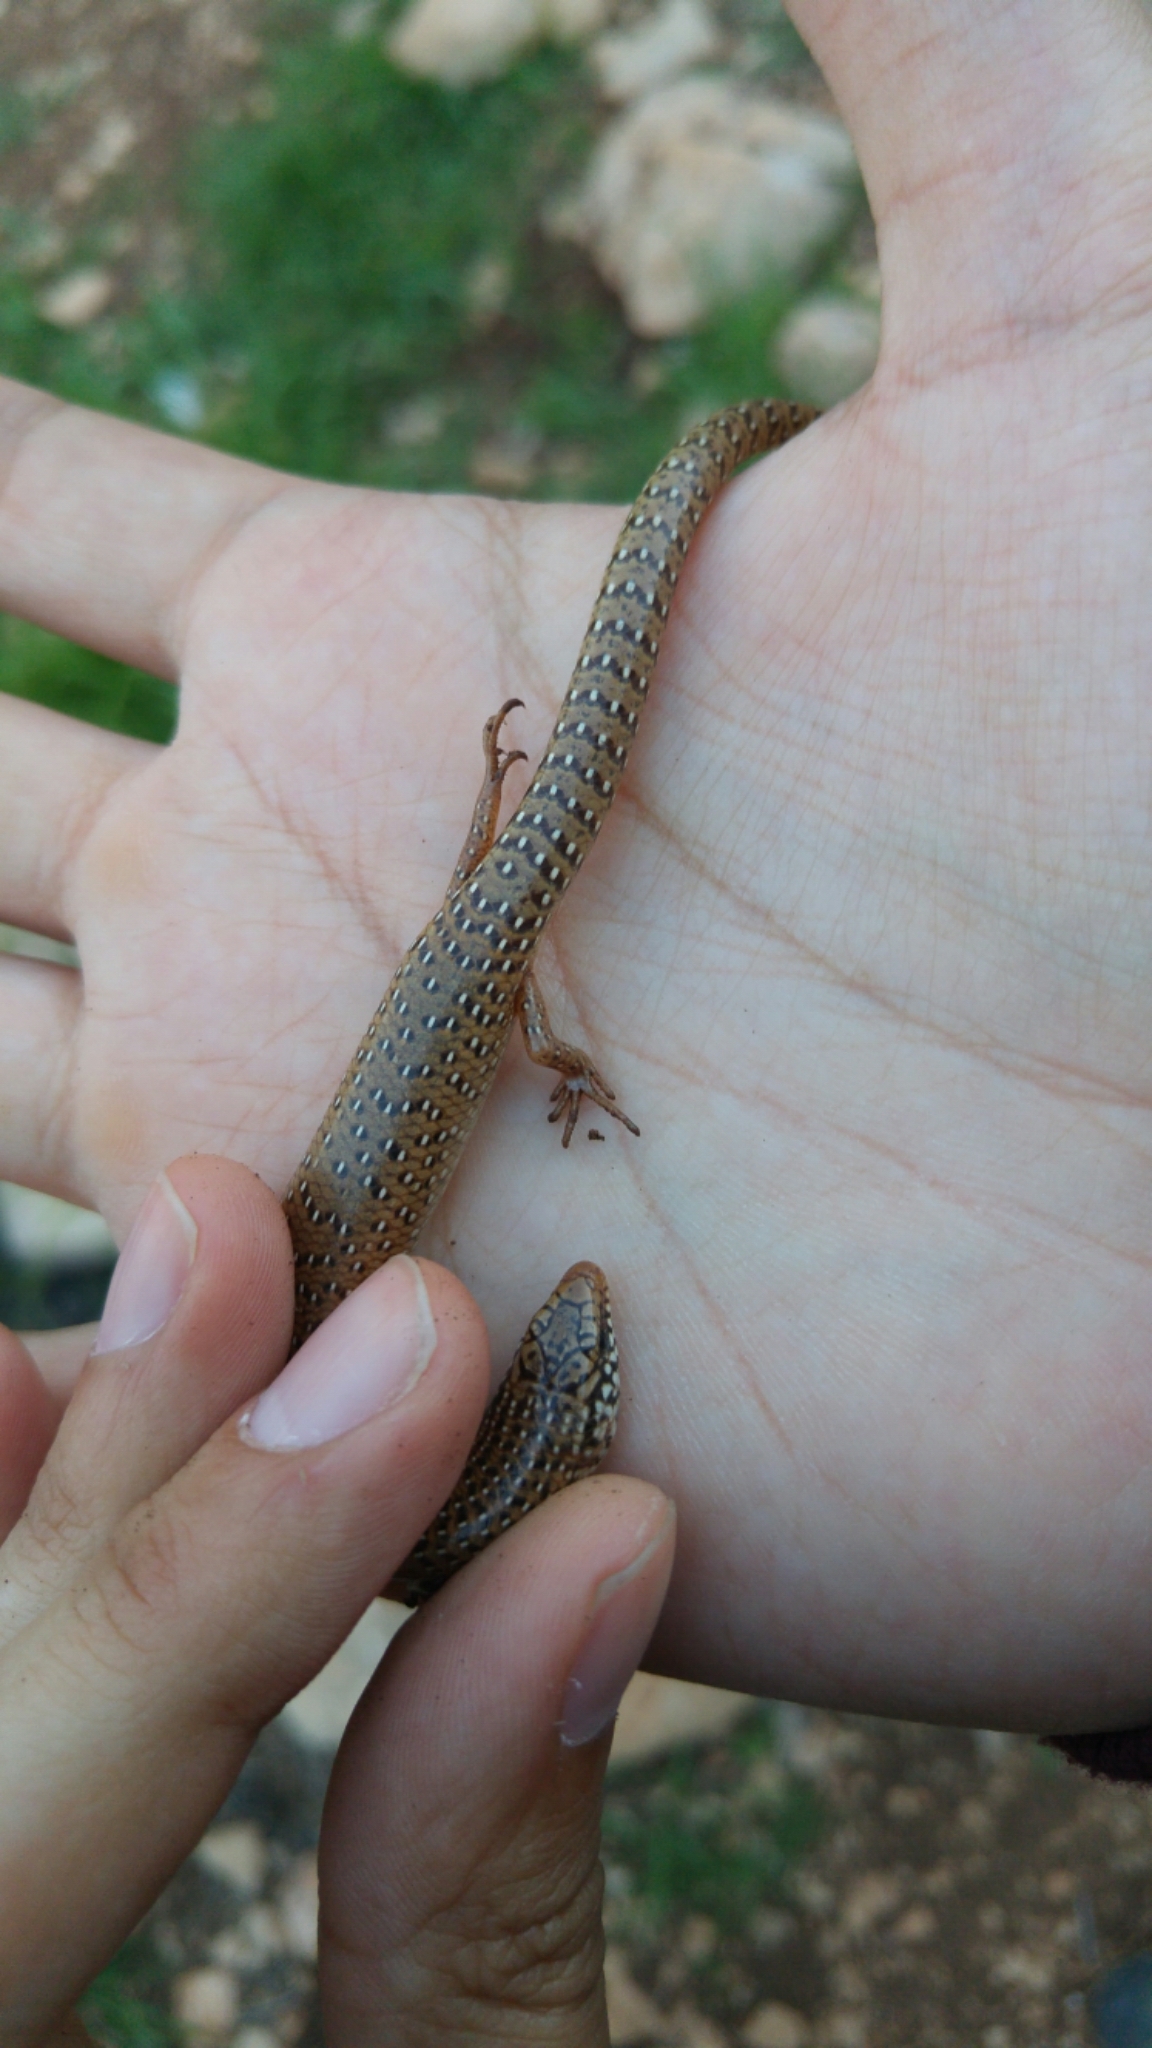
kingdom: Animalia
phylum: Chordata
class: Squamata
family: Scincidae
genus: Chalcides
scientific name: Chalcides ocellatus
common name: Ocellated skink
